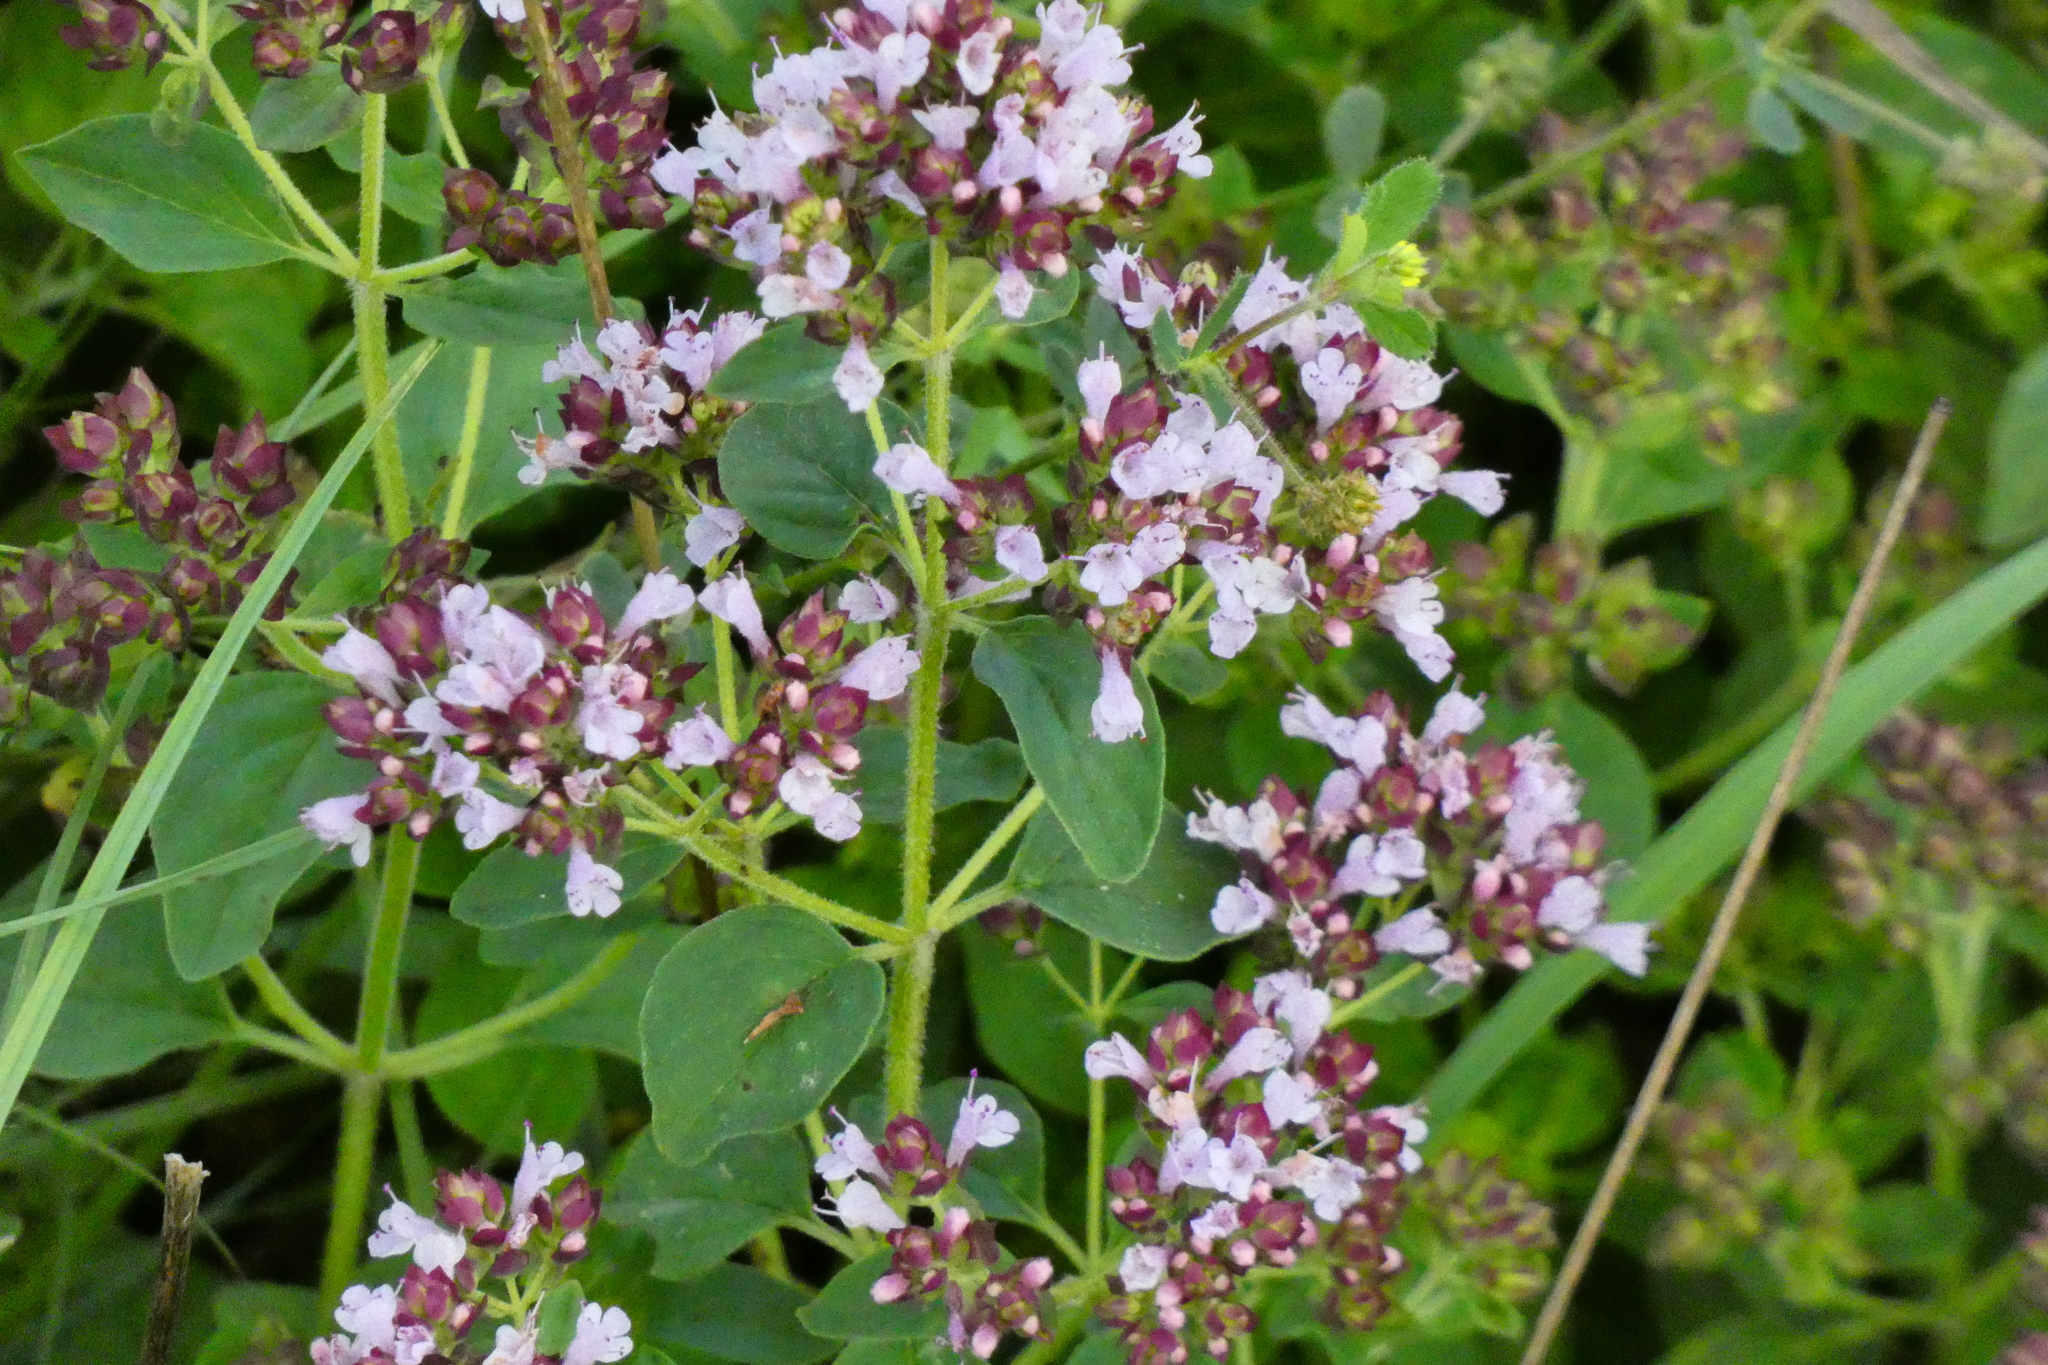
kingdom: Plantae
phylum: Tracheophyta
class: Magnoliopsida
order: Lamiales
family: Lamiaceae
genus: Origanum
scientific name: Origanum vulgare
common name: Wild marjoram
